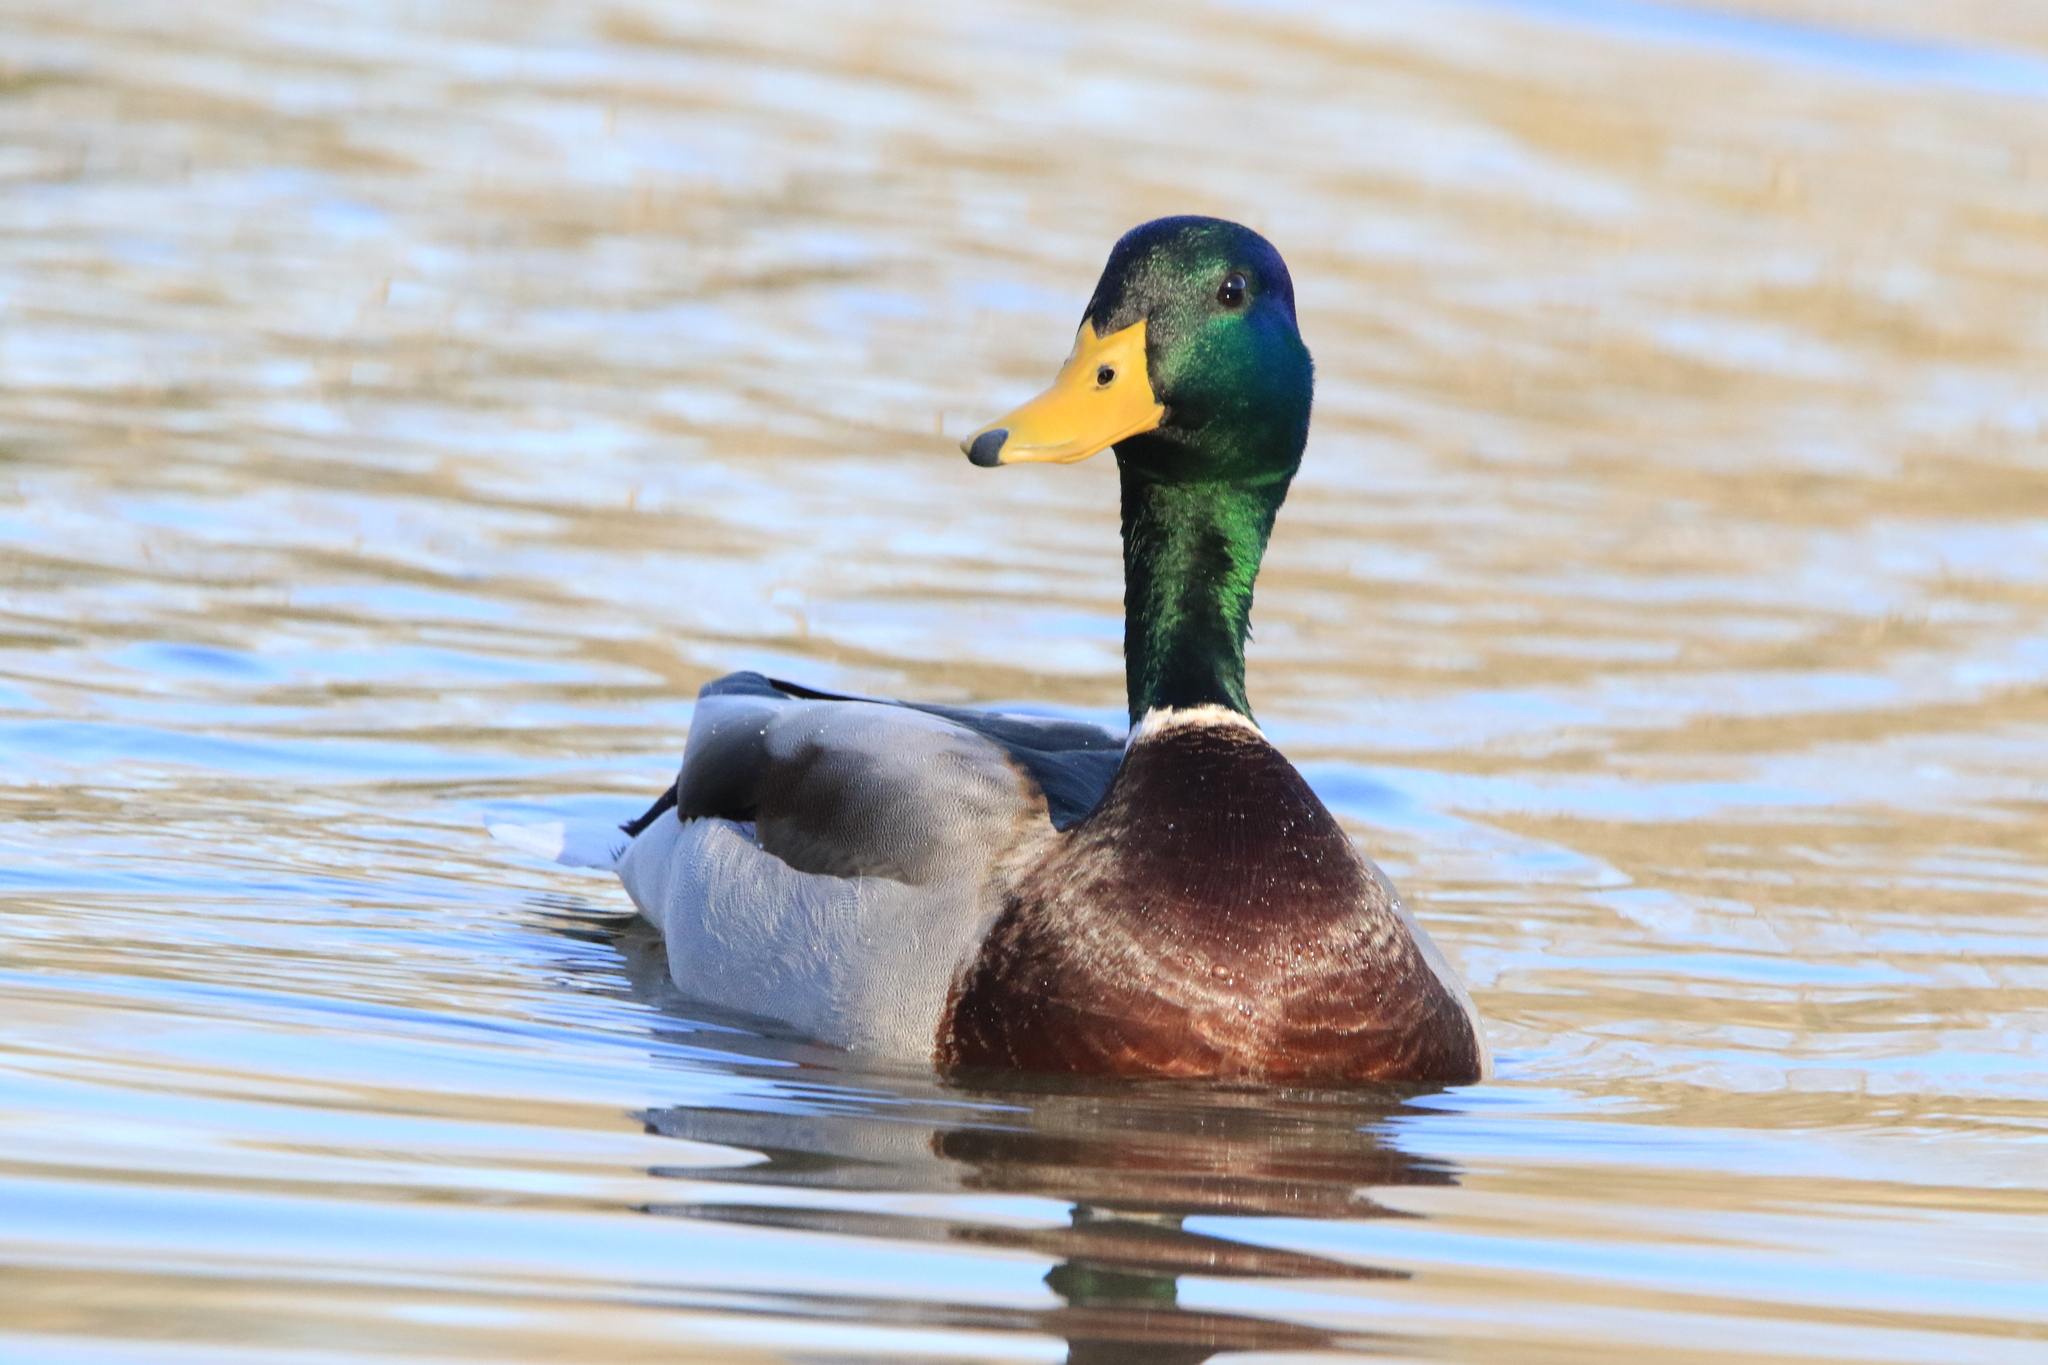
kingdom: Animalia
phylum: Chordata
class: Aves
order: Anseriformes
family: Anatidae
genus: Anas
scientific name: Anas platyrhynchos
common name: Mallard
